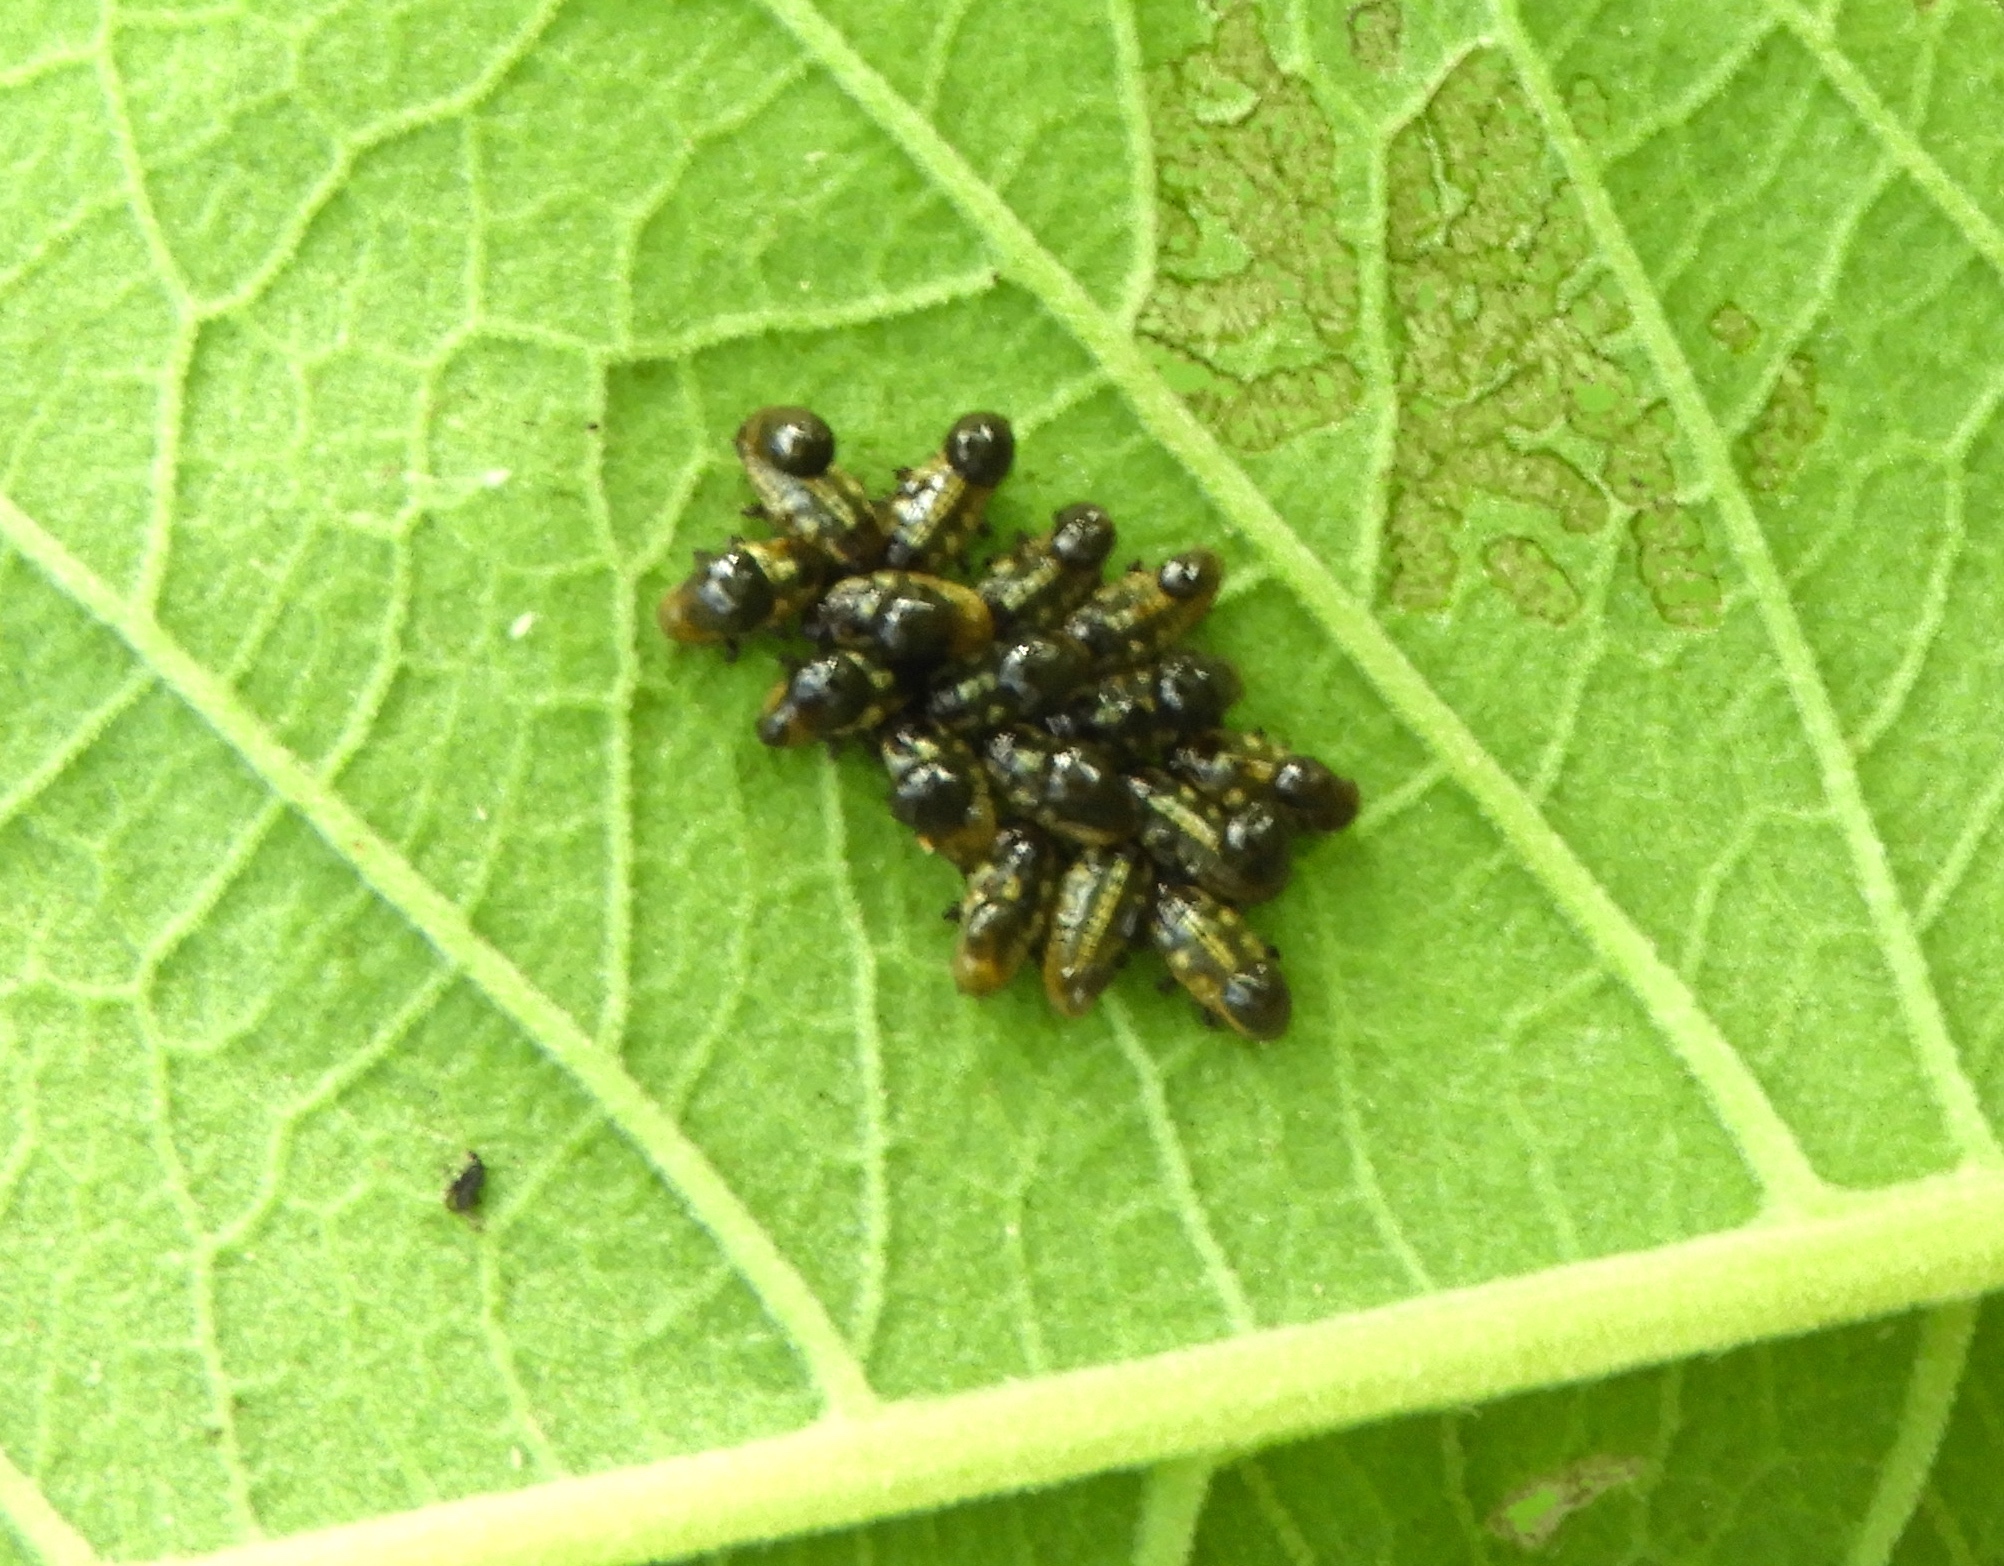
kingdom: Animalia
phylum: Arthropoda
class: Insecta
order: Coleoptera
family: Chrysomelidae
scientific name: Chrysomelidae
